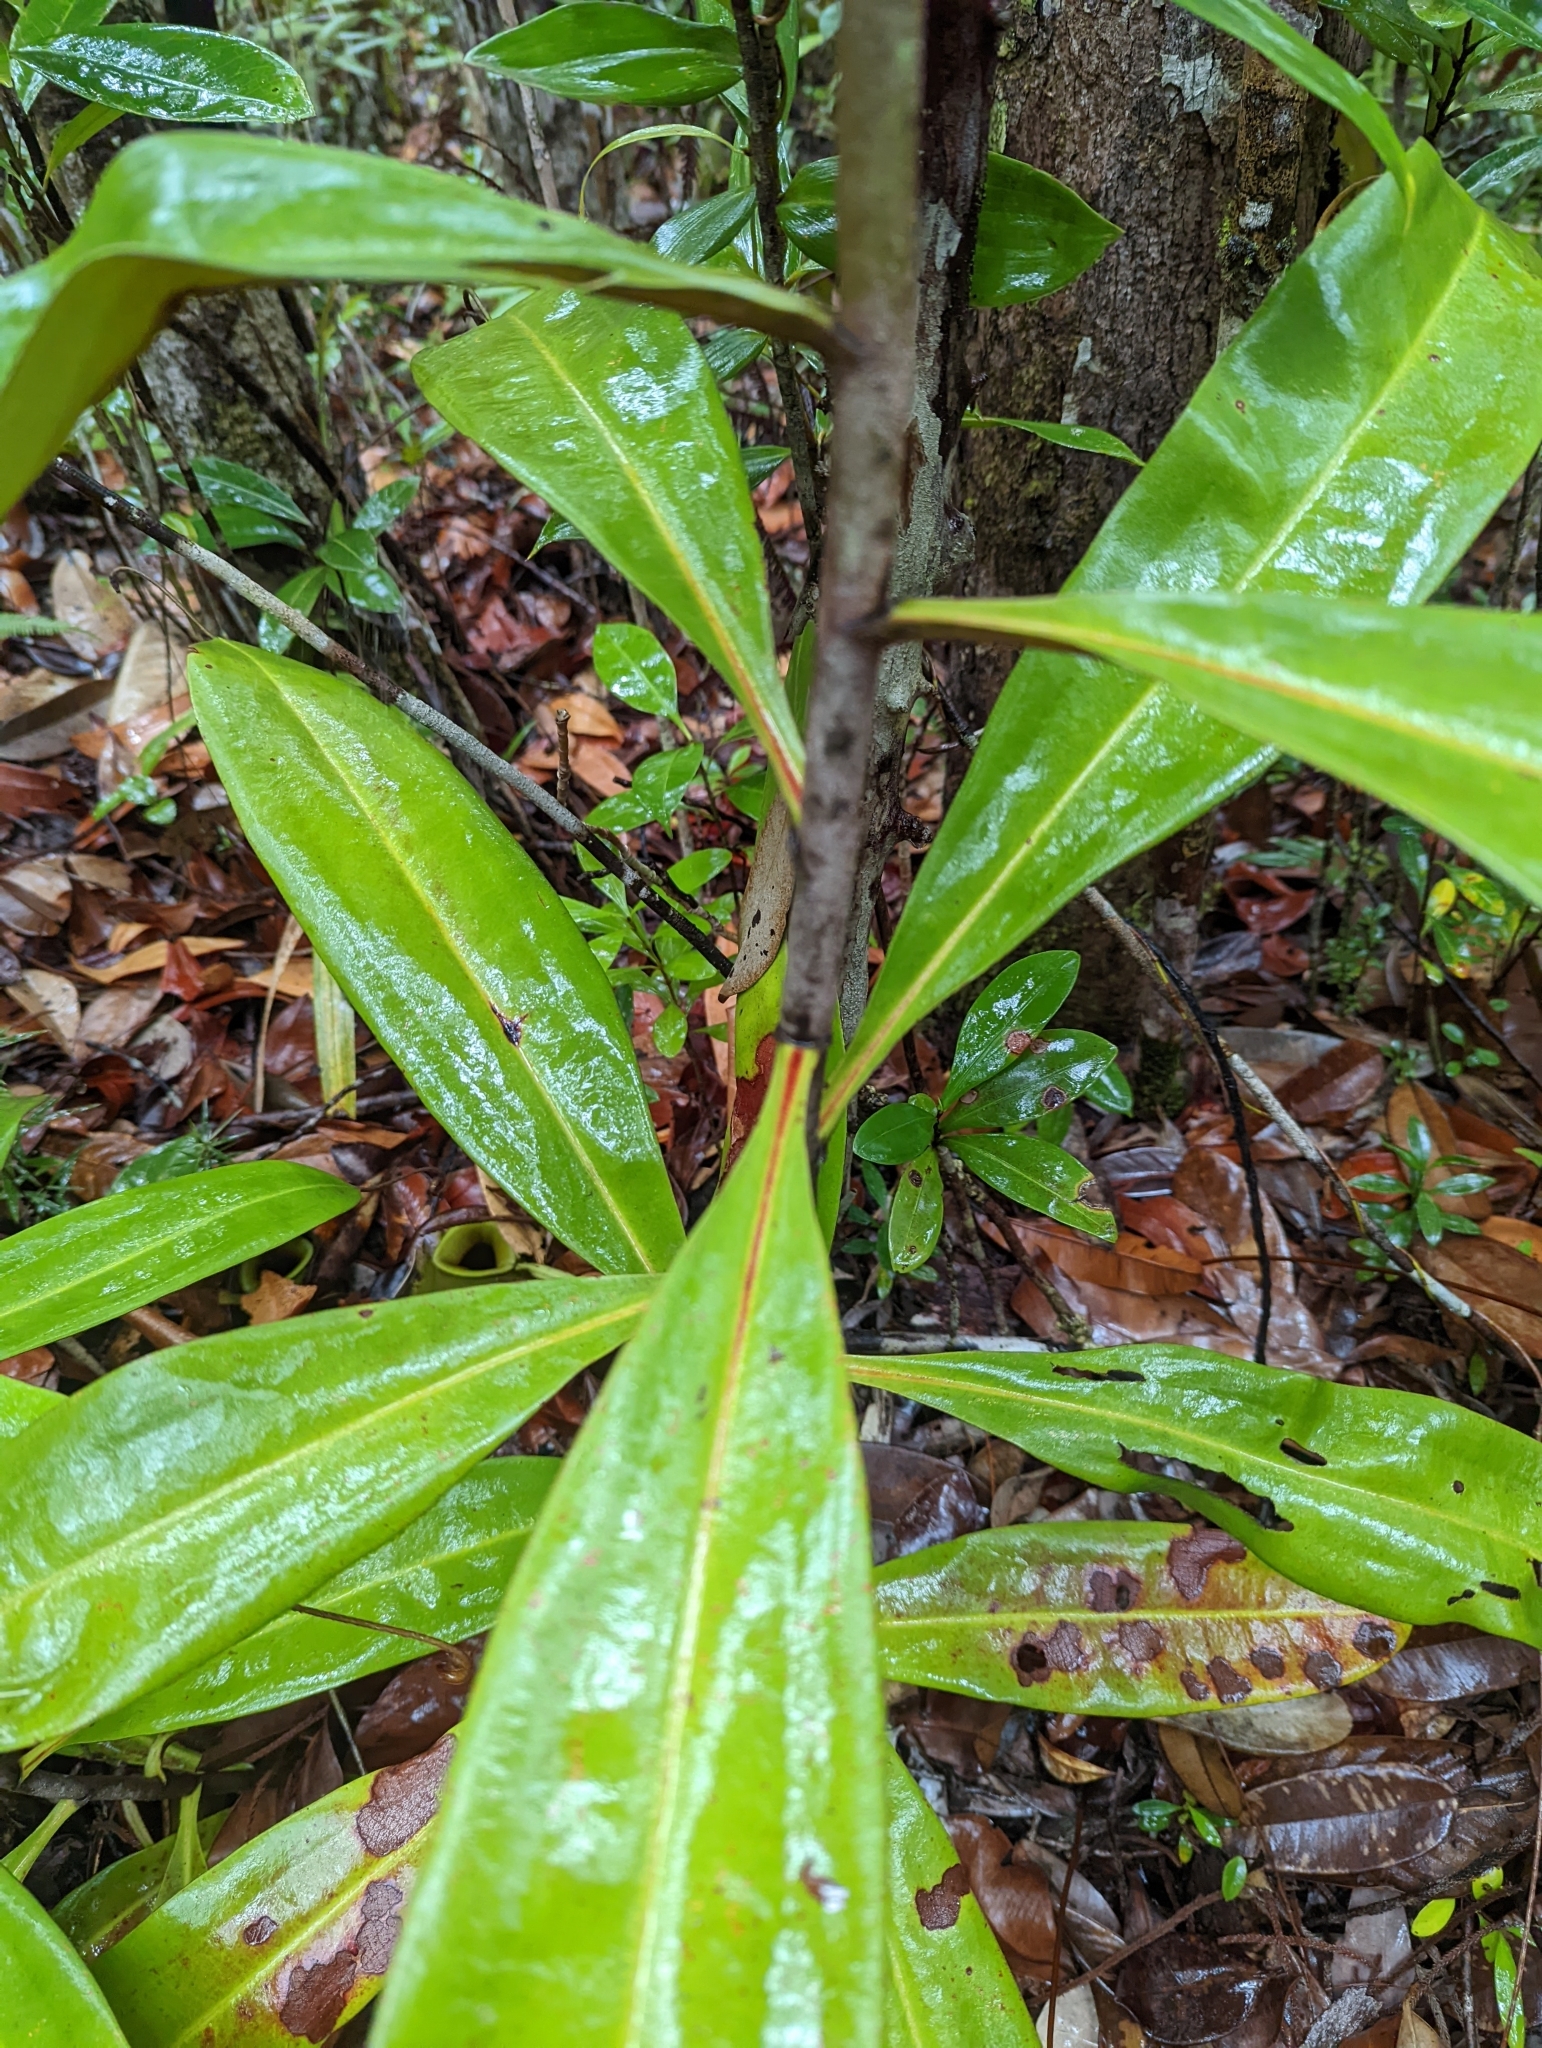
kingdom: Plantae
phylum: Tracheophyta
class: Magnoliopsida
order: Caryophyllales
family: Nepenthaceae
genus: Nepenthes
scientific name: Nepenthes ampullaria
